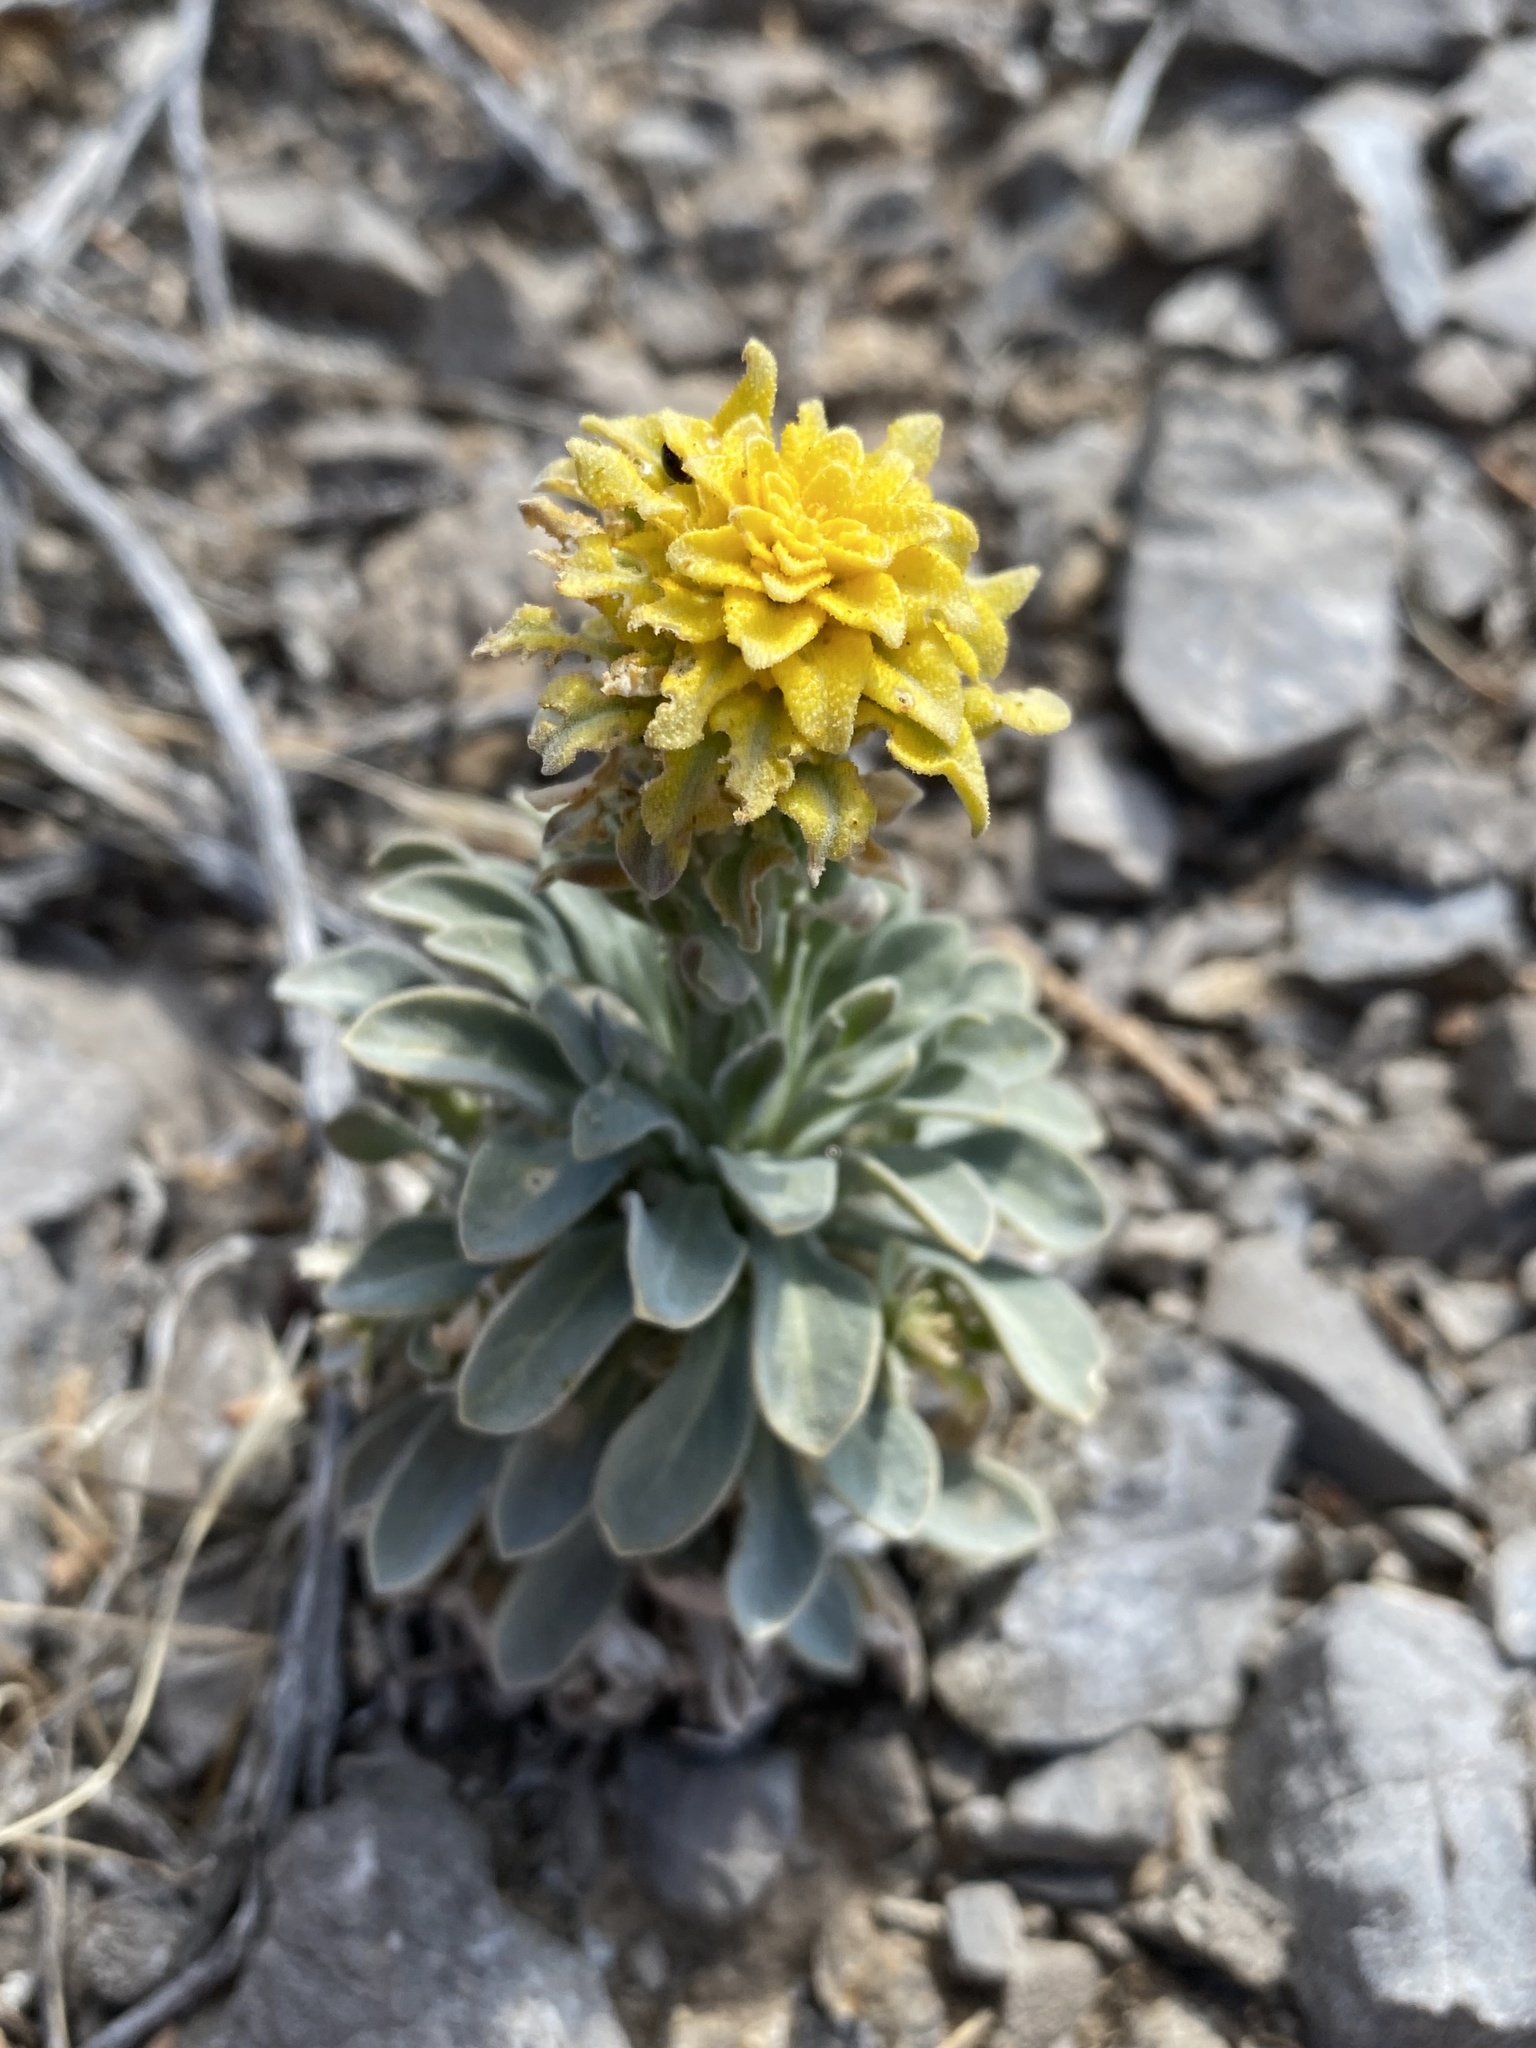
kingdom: Fungi
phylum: Basidiomycota
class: Pucciniomycetes
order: Pucciniales
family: Pucciniaceae
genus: Puccinia
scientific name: Puccinia monoica
